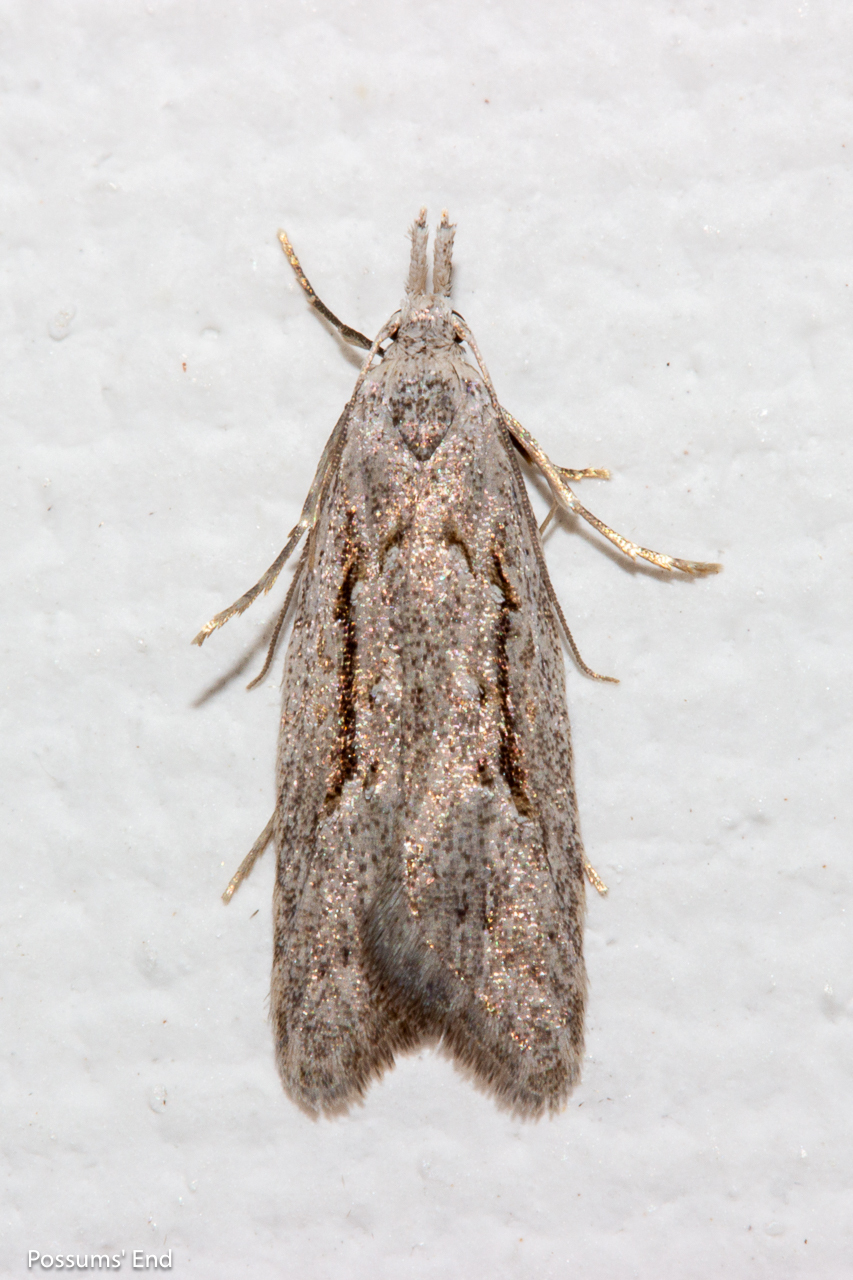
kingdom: Animalia
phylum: Arthropoda
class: Insecta
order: Lepidoptera
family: Carposinidae
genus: Carposina
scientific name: Carposina
